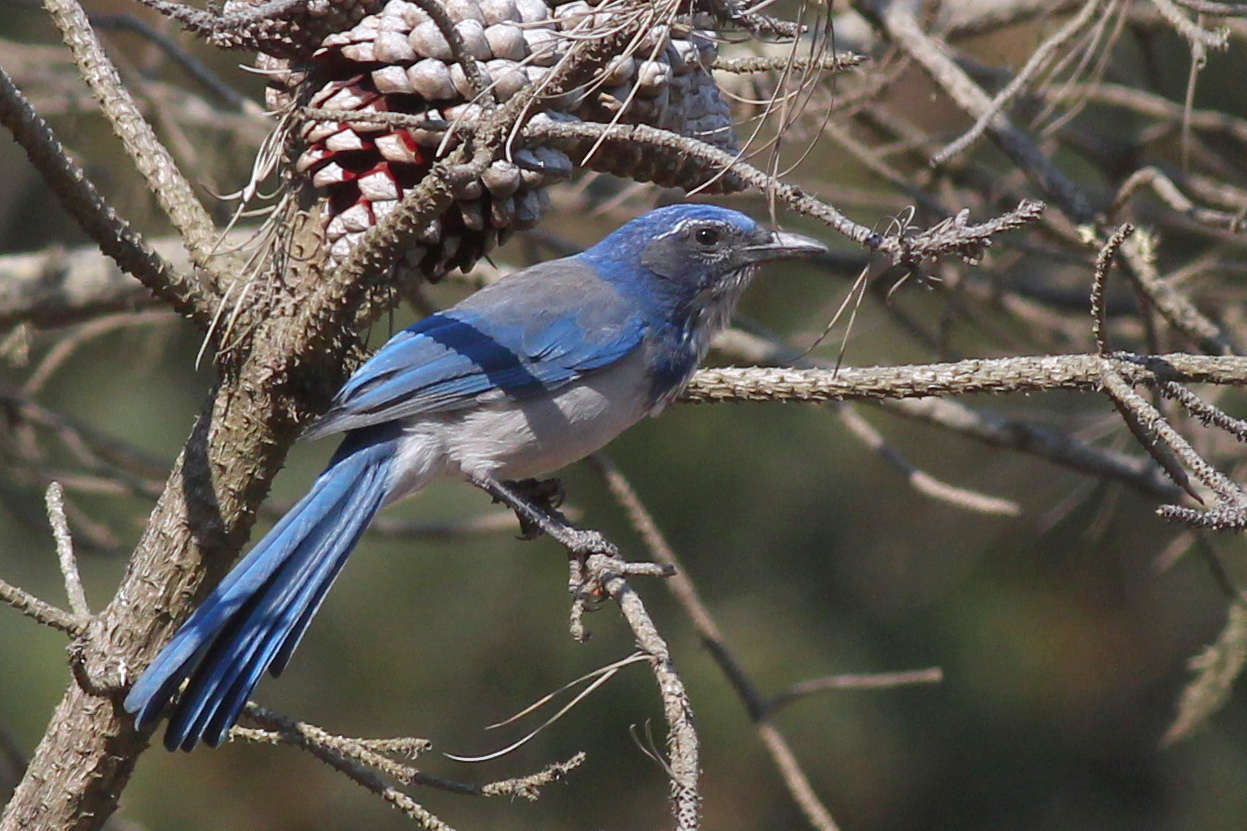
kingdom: Animalia
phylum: Chordata
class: Aves
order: Passeriformes
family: Corvidae
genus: Aphelocoma
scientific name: Aphelocoma californica
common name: California scrub-jay
